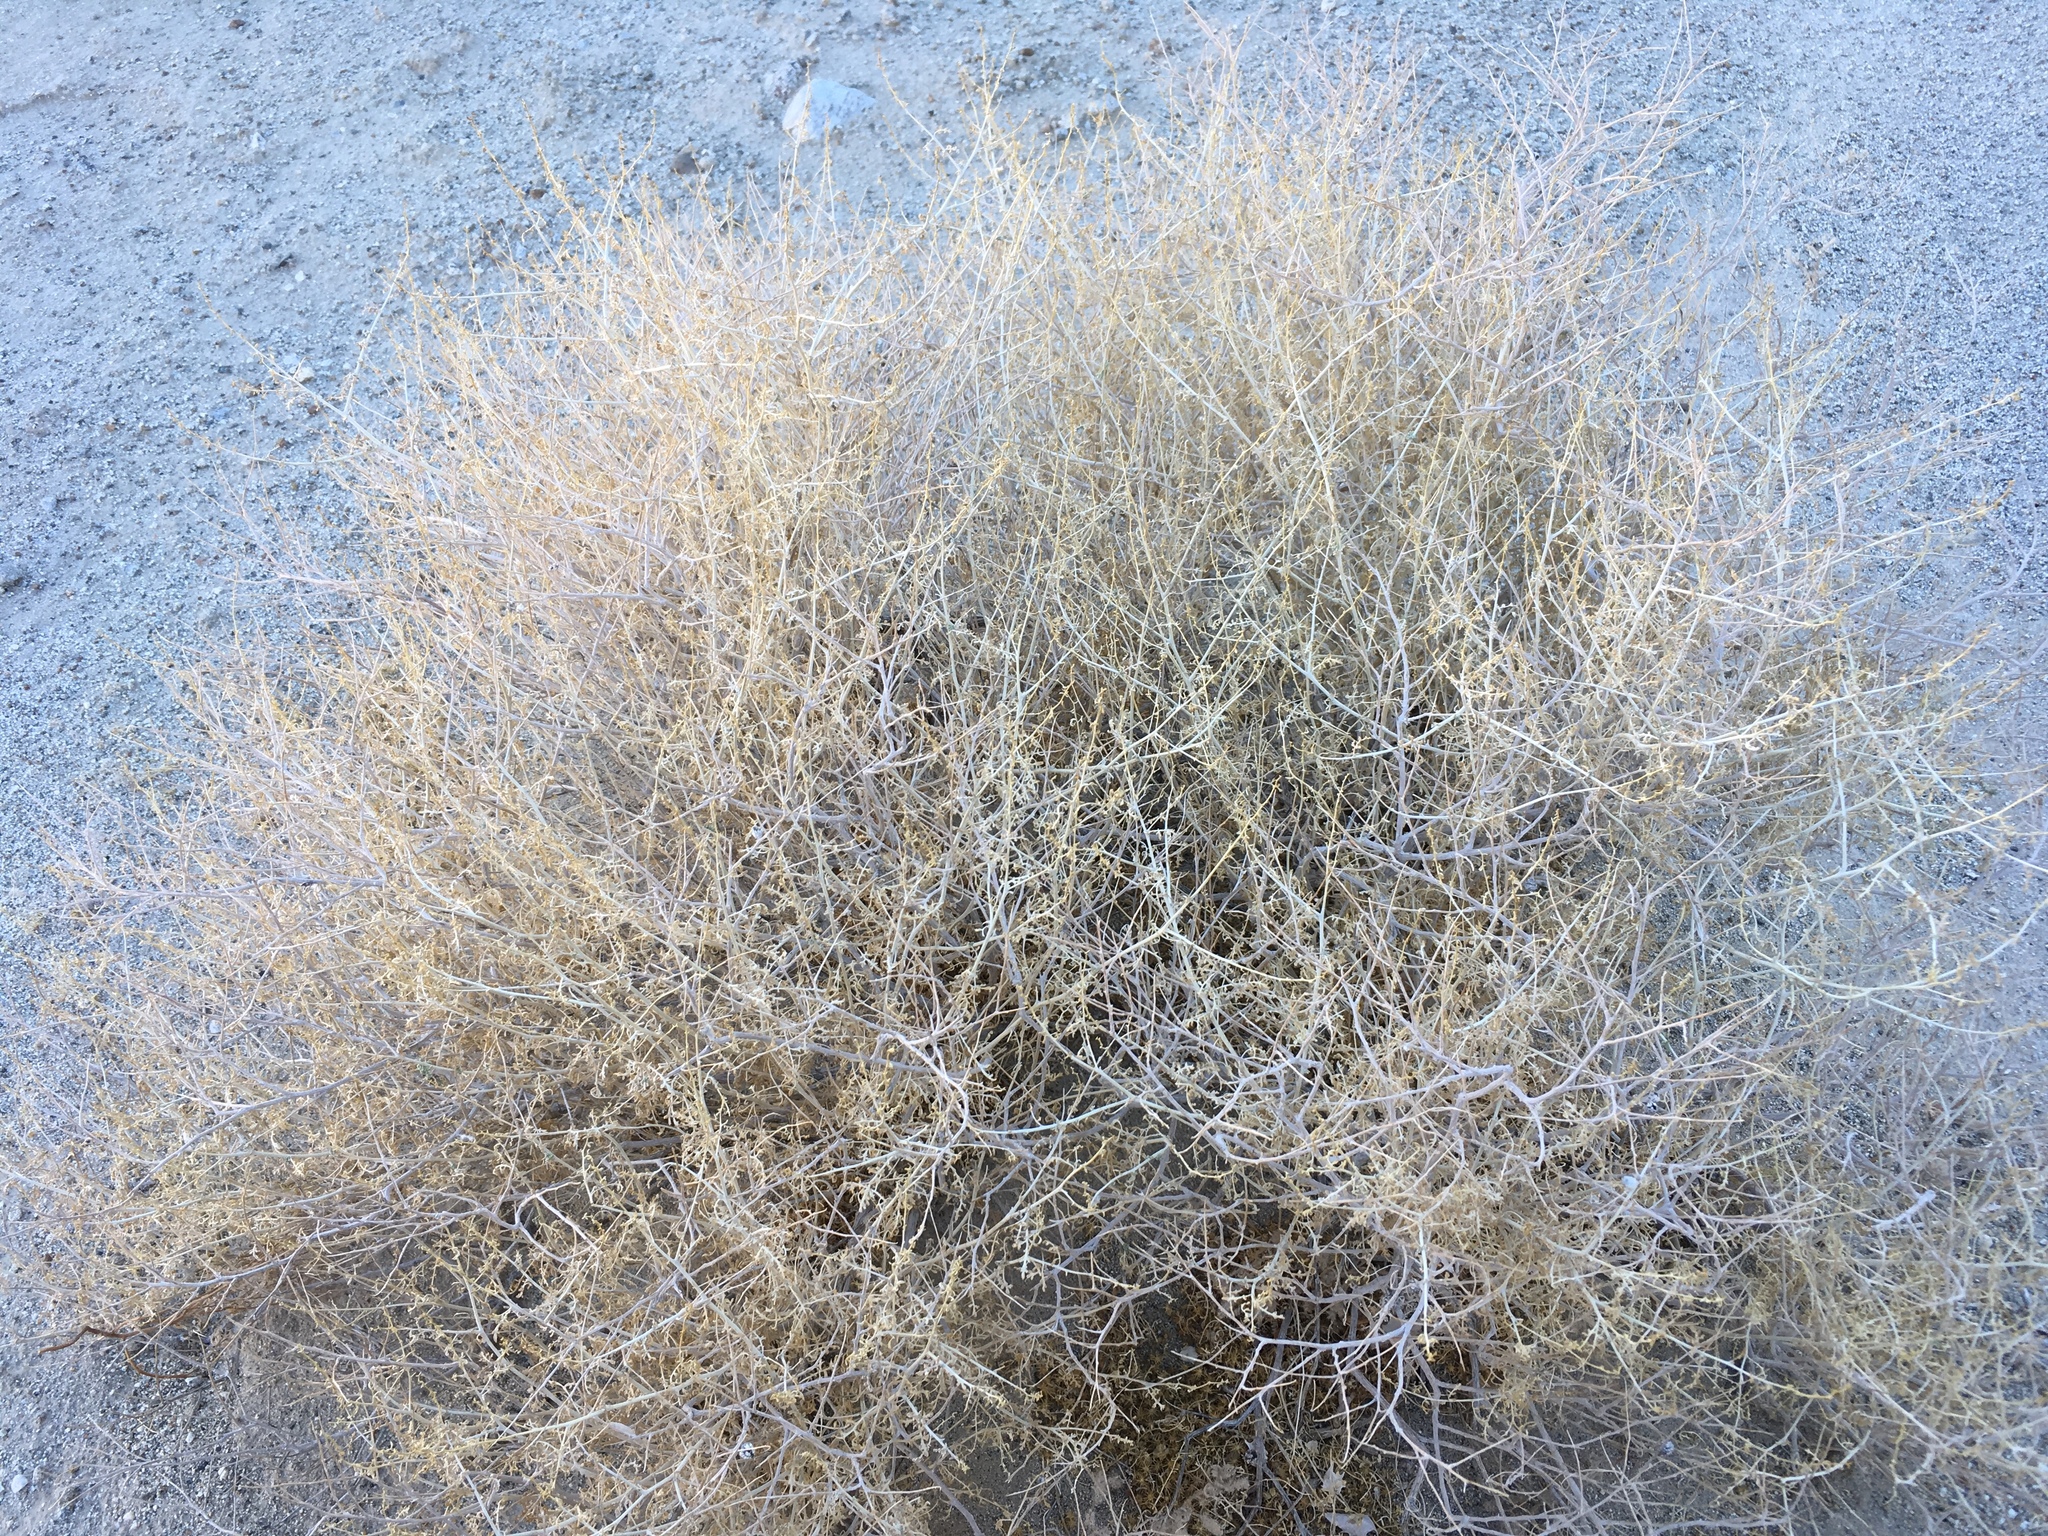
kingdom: Plantae
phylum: Tracheophyta
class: Magnoliopsida
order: Asterales
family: Asteraceae
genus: Ambrosia
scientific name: Ambrosia dumosa
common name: Bur-sage
